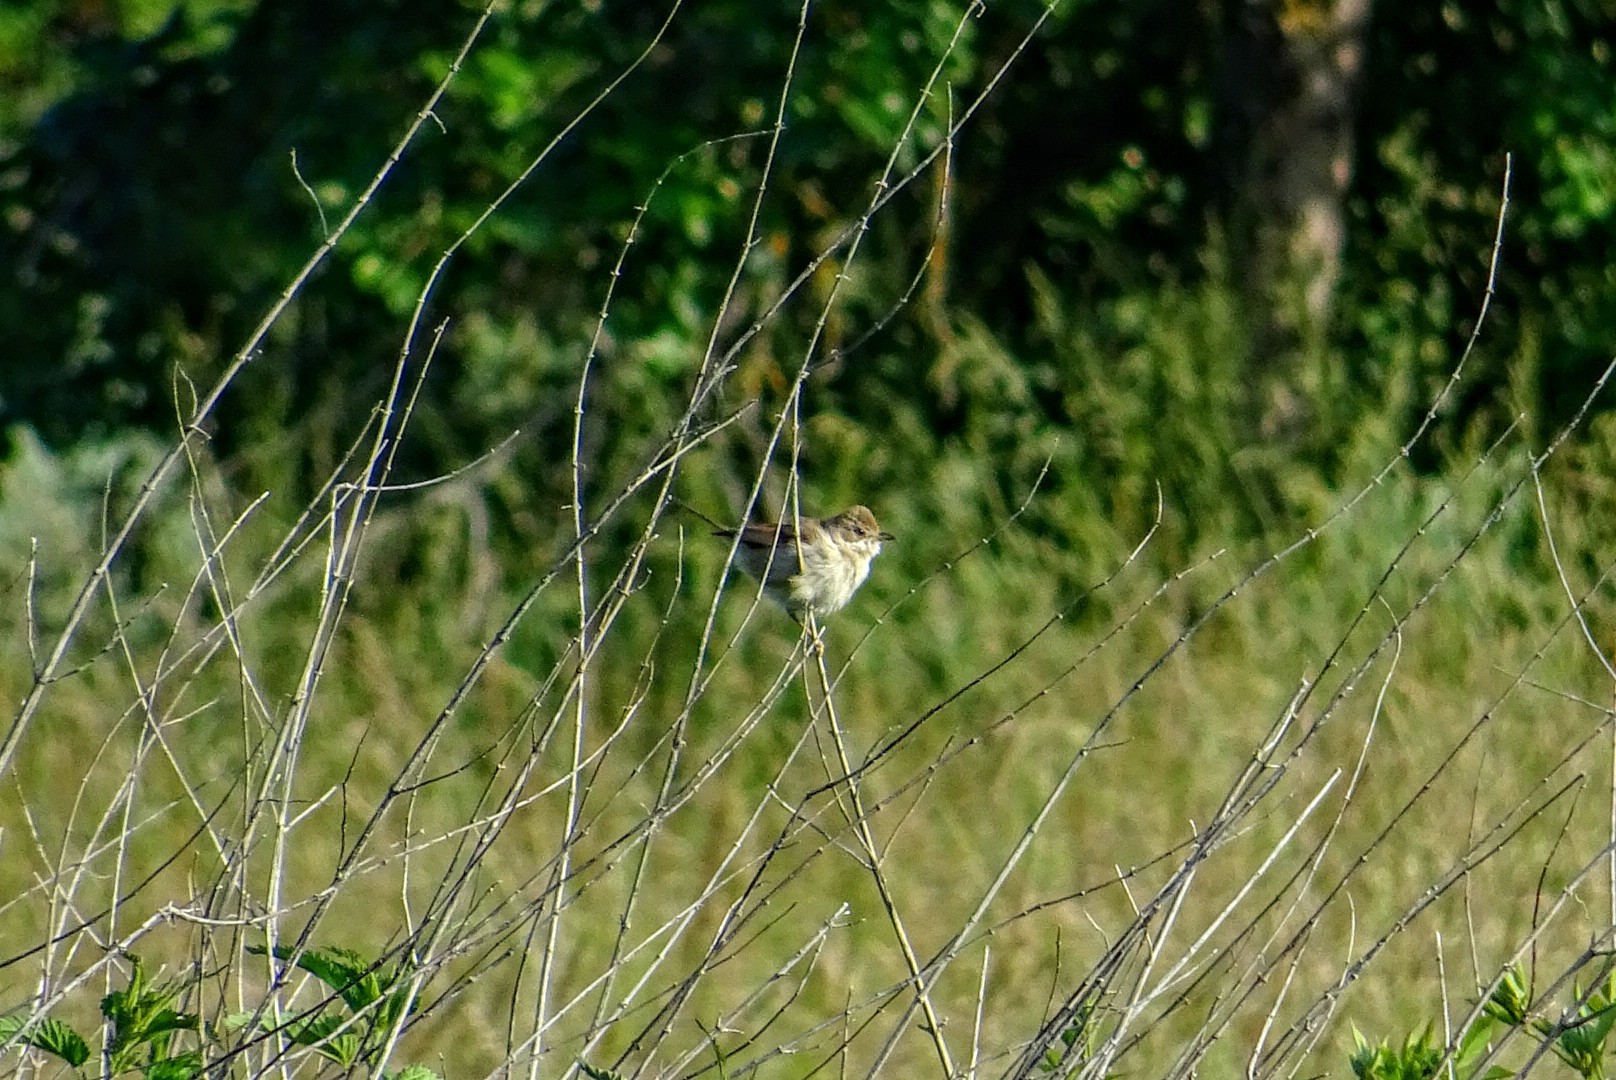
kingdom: Animalia
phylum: Chordata
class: Aves
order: Passeriformes
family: Sylviidae
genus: Sylvia
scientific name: Sylvia communis
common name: Common whitethroat
